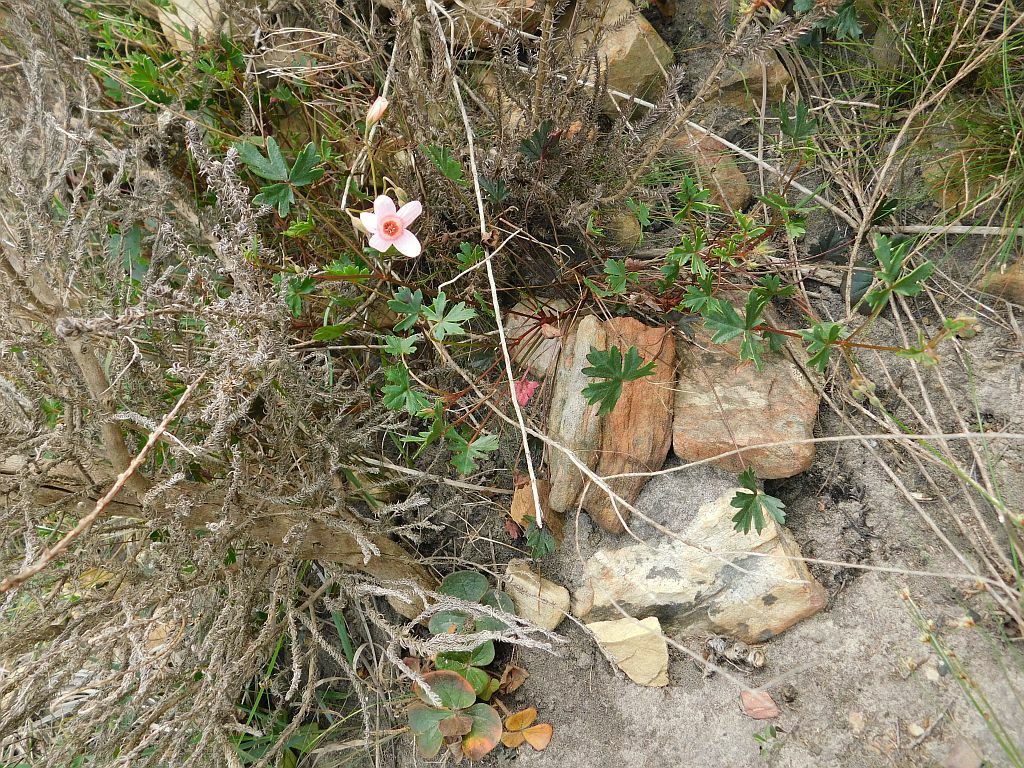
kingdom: Plantae
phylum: Tracheophyta
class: Magnoliopsida
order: Geraniales
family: Geraniaceae
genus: Pelargonium
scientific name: Pelargonium incarnatum
